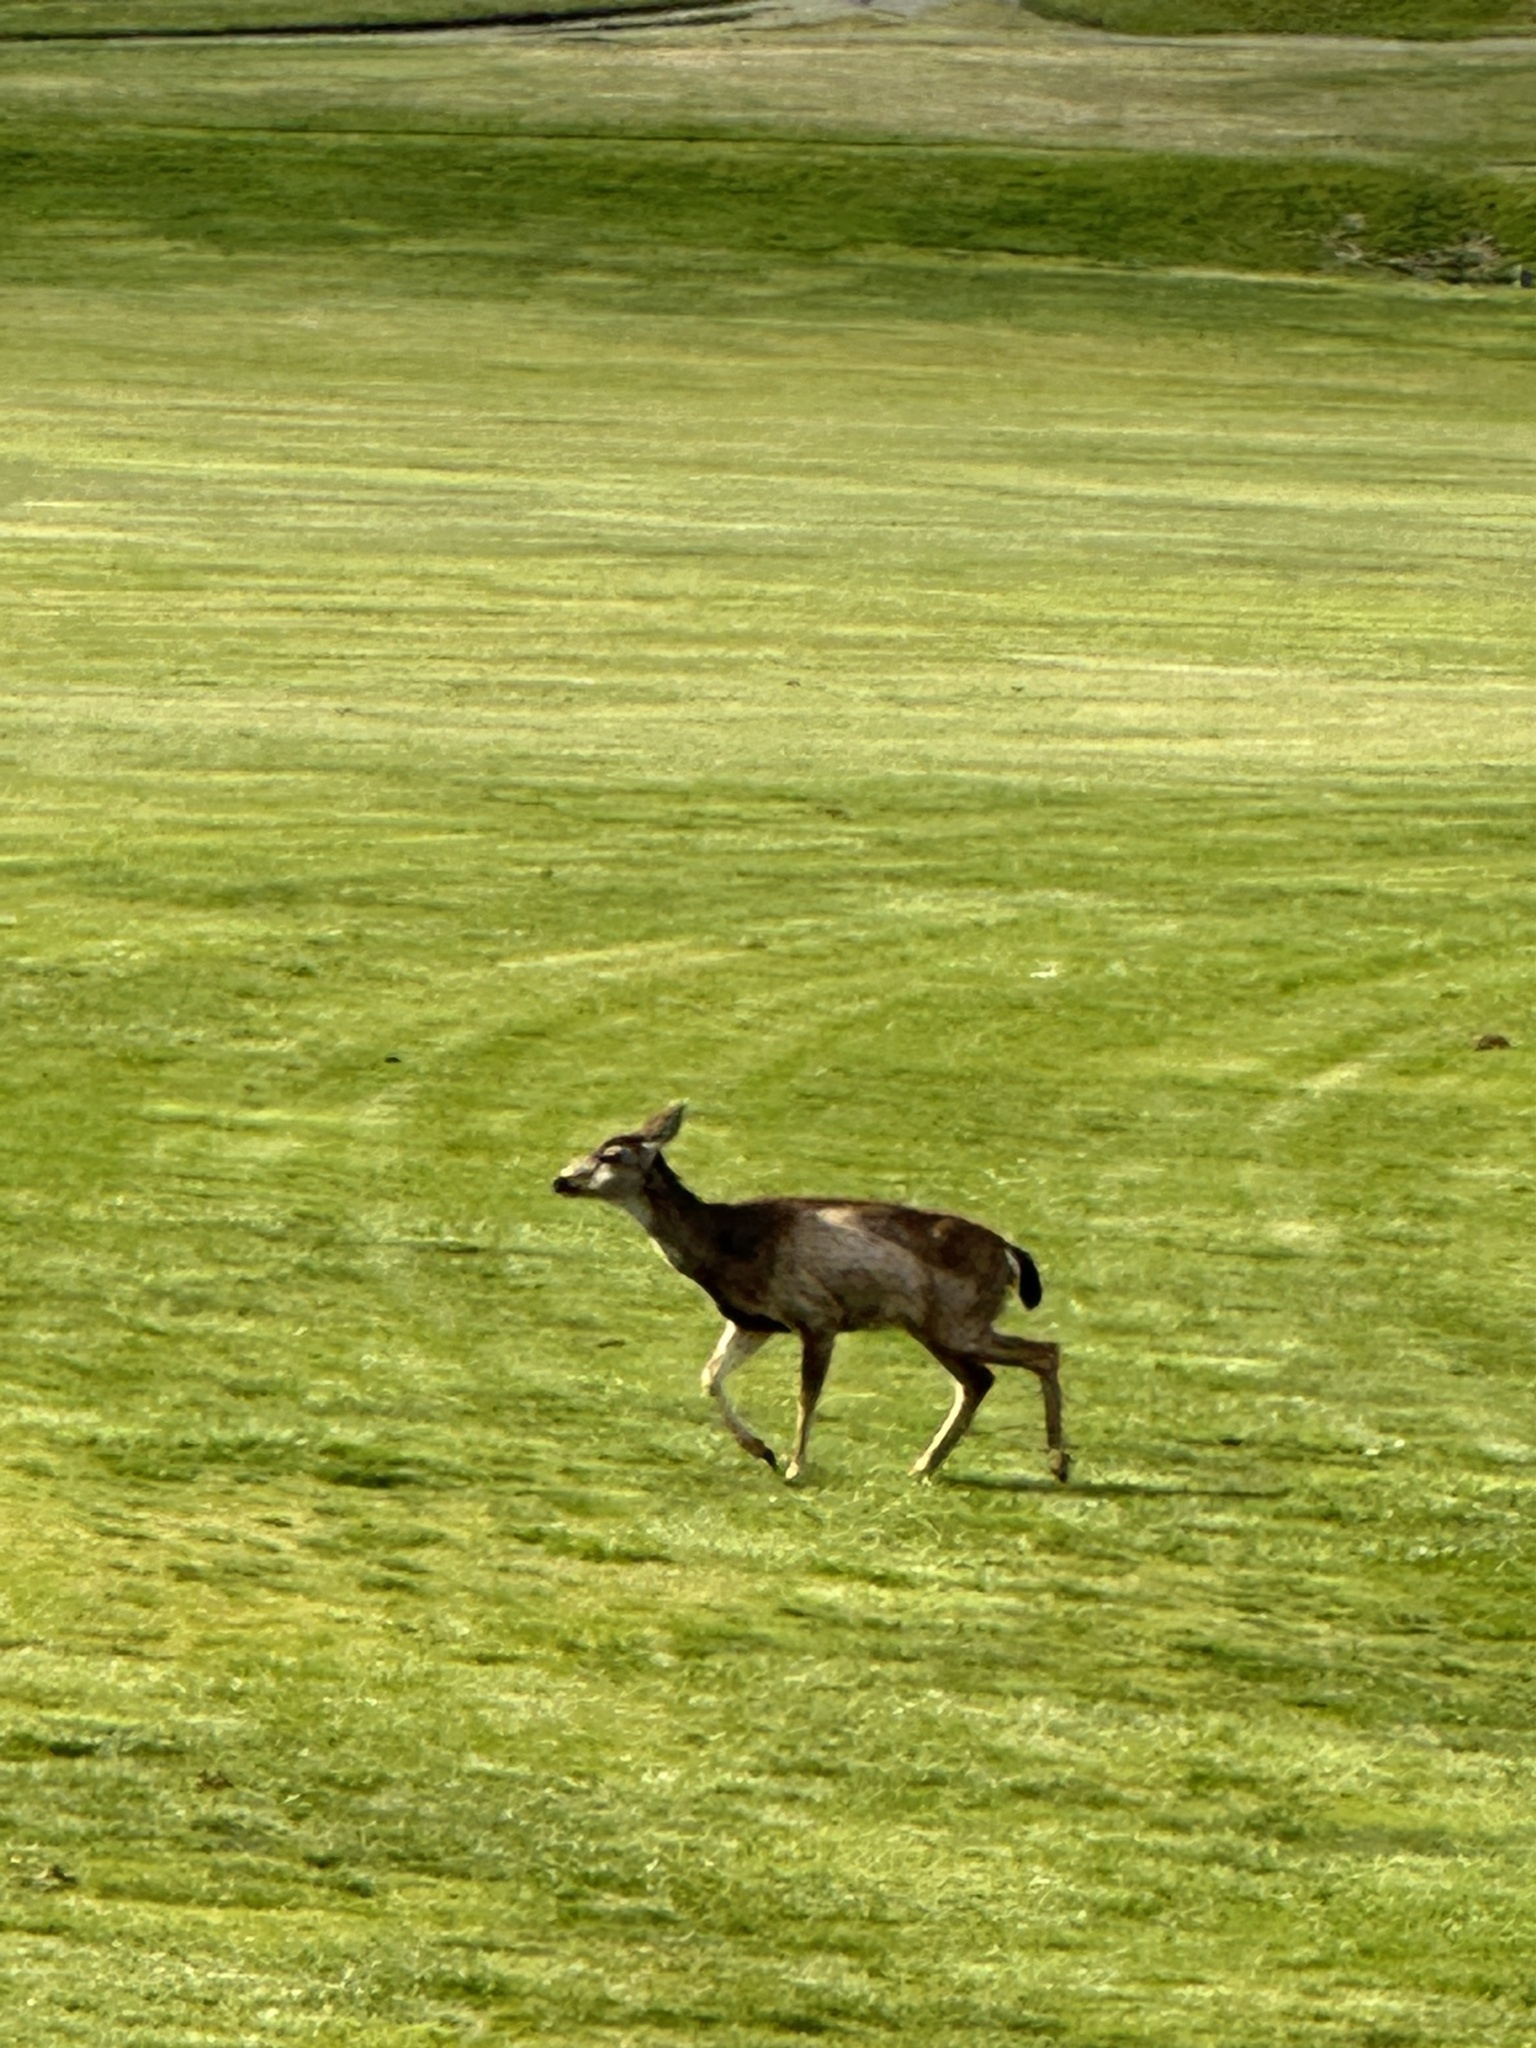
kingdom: Animalia
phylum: Chordata
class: Mammalia
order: Artiodactyla
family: Cervidae
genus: Odocoileus
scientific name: Odocoileus hemionus
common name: Mule deer
